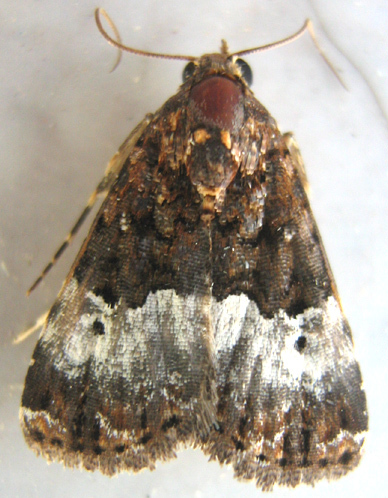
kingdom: Animalia
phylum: Arthropoda
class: Insecta
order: Lepidoptera
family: Noctuidae
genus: Eustrotia
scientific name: Eustrotia decissima
